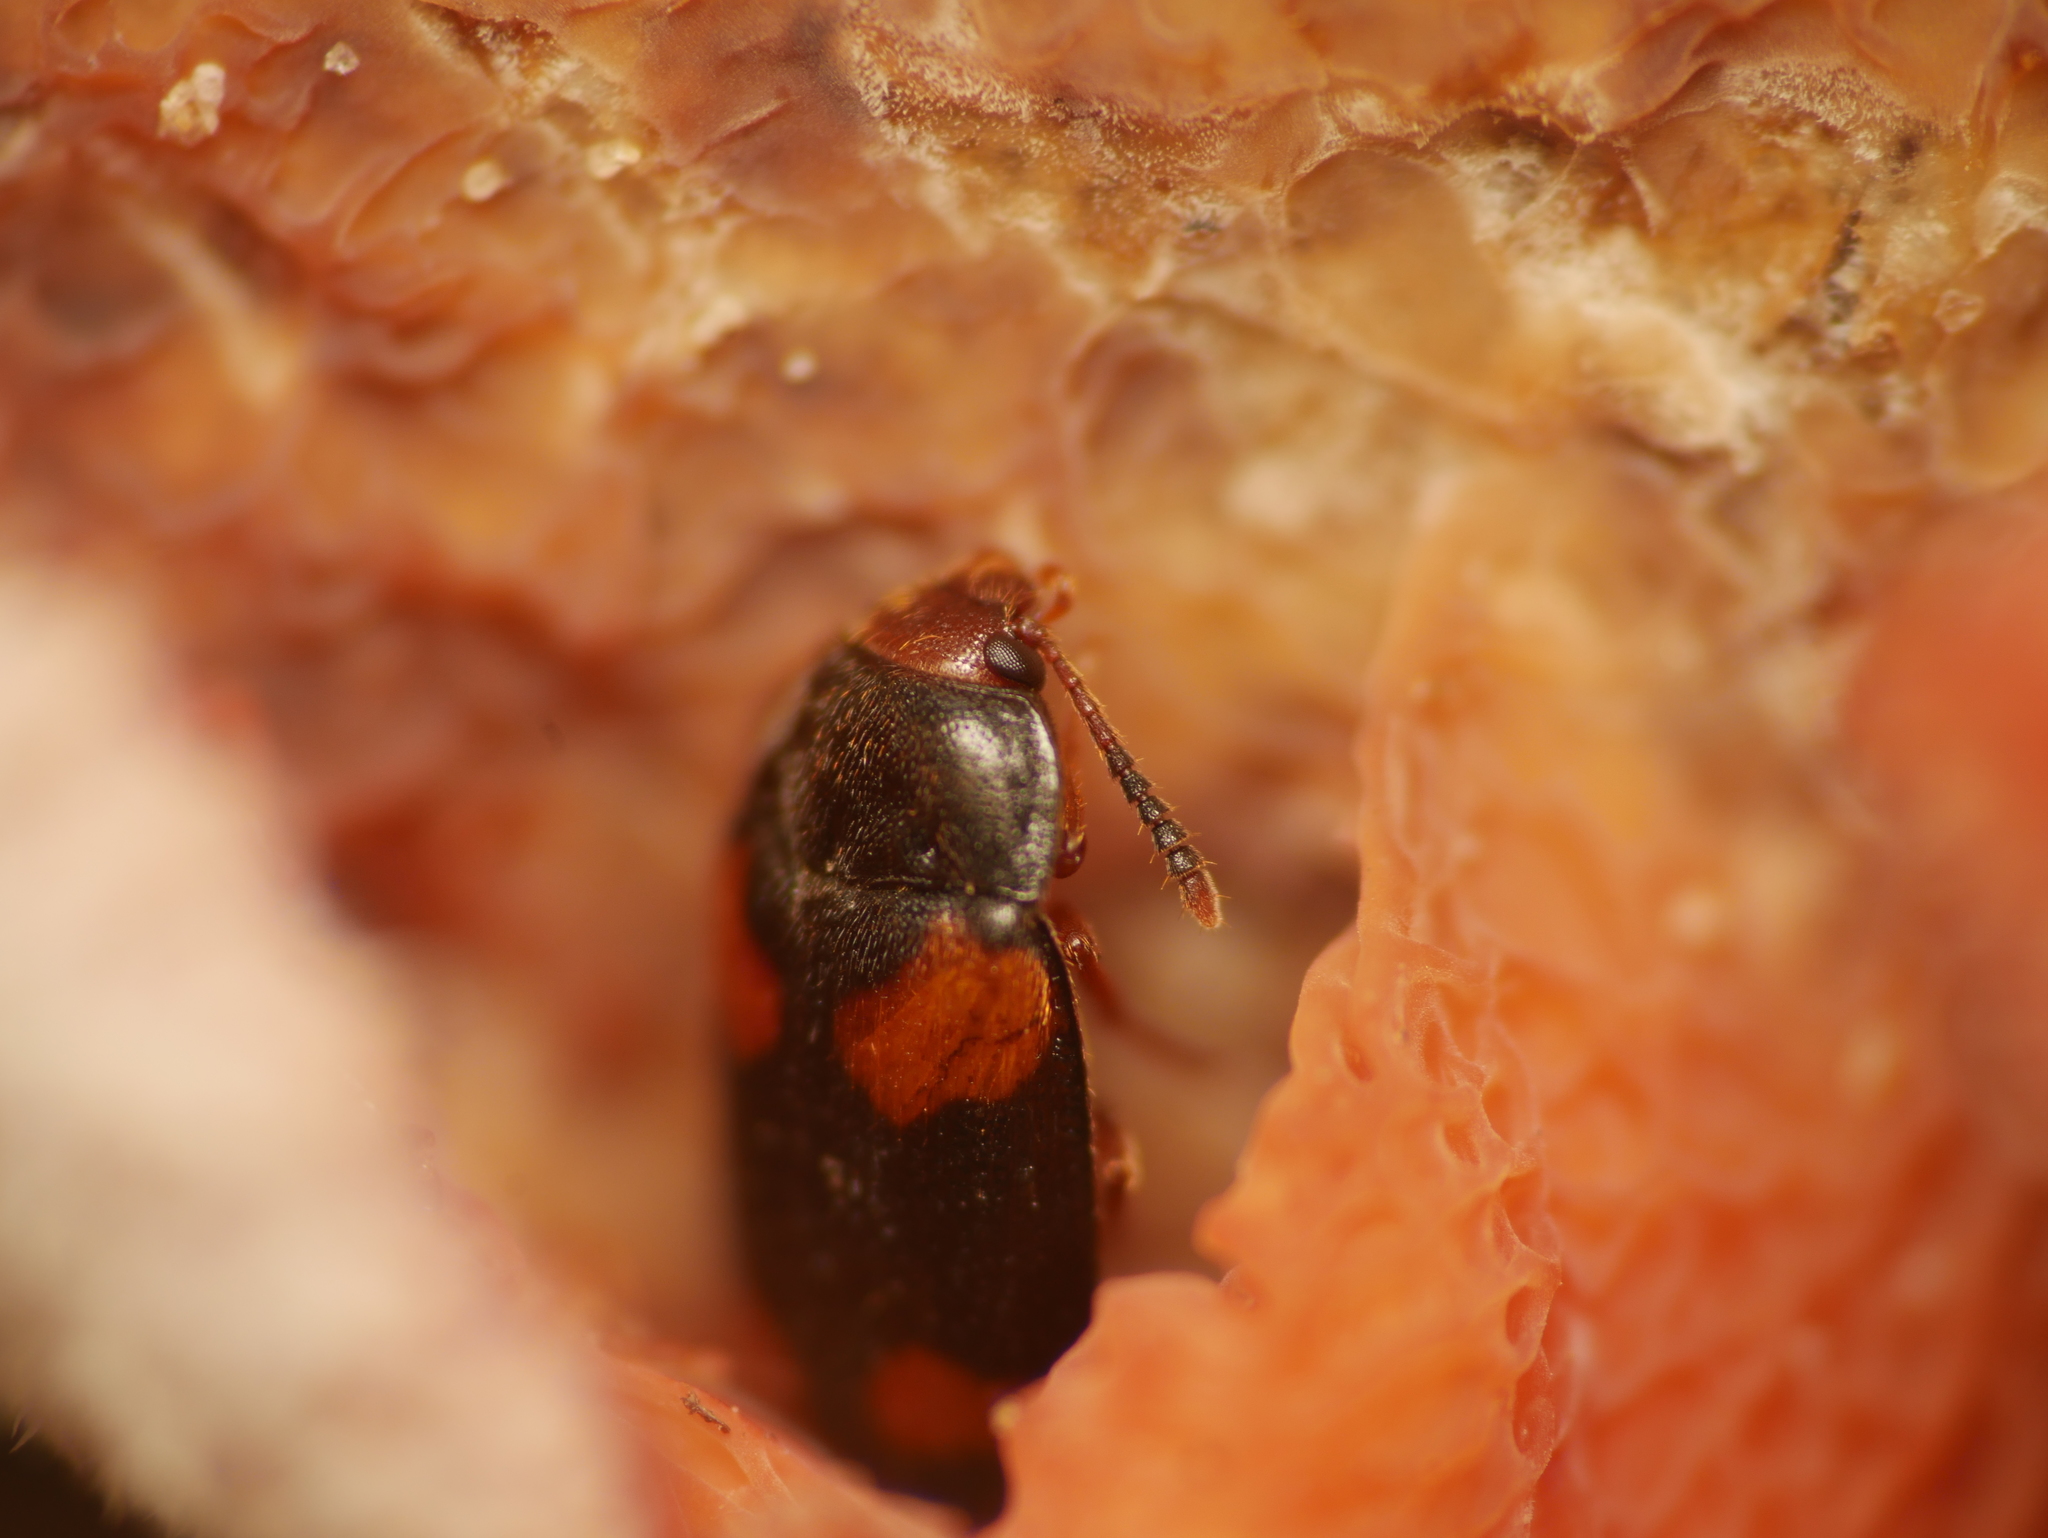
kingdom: Animalia
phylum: Arthropoda
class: Insecta
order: Coleoptera
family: Mycetophagidae
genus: Mycetophagus
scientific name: Mycetophagus quadripustulatus
